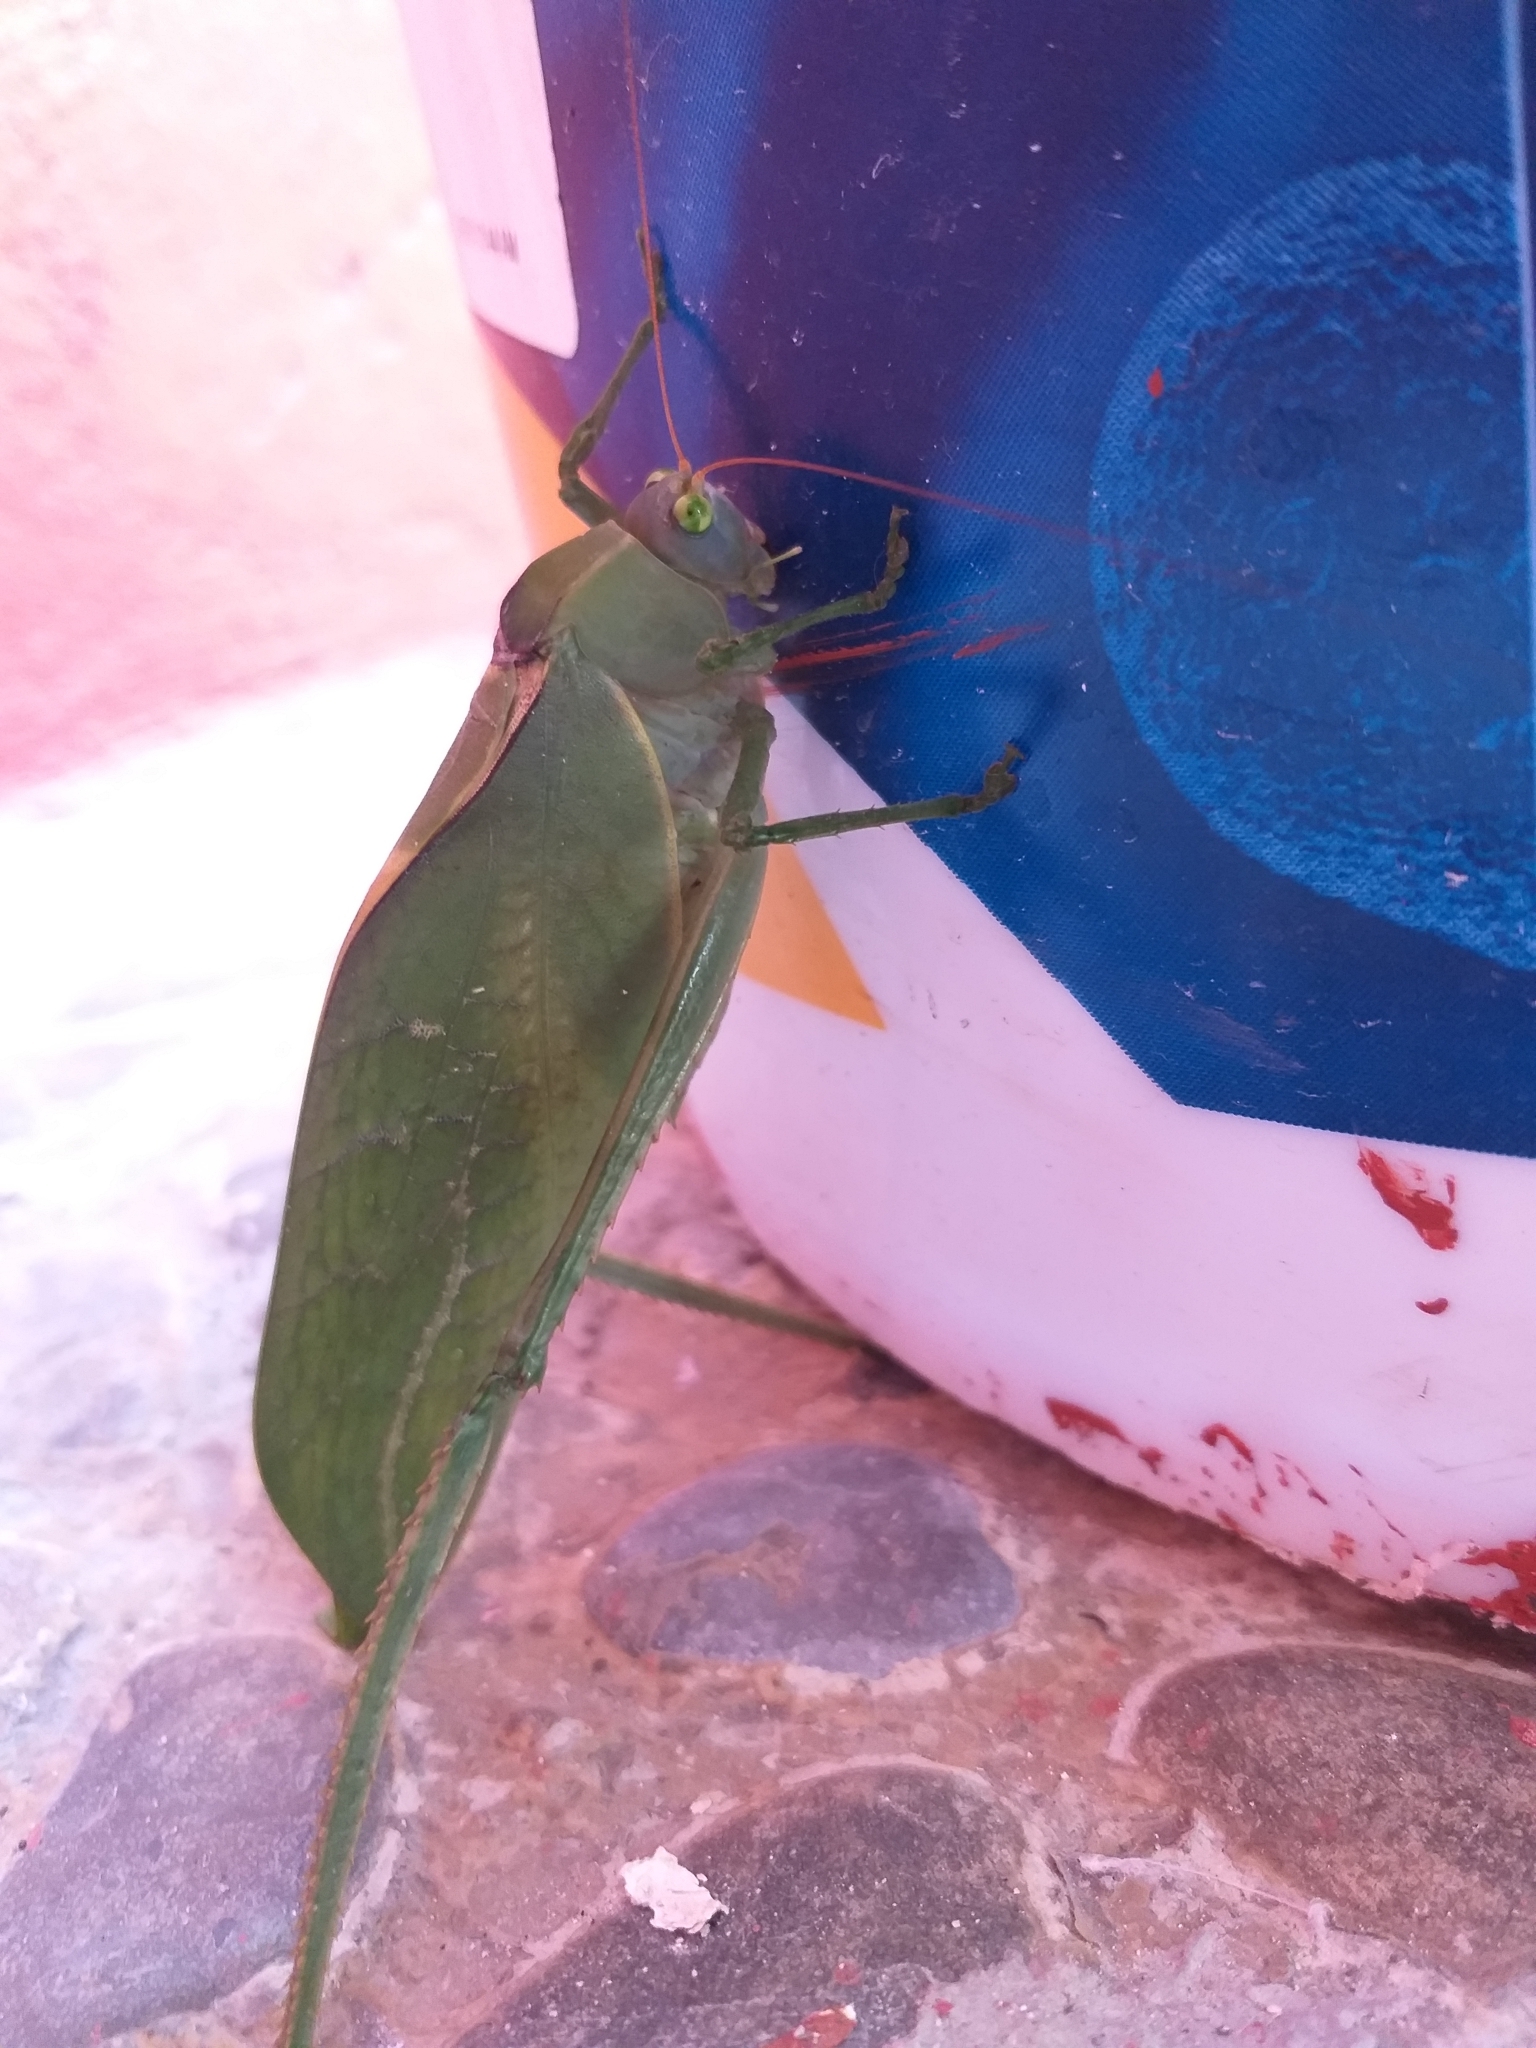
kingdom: Animalia
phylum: Arthropoda
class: Insecta
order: Orthoptera
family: Tettigoniidae
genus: Stilpnochlora
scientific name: Stilpnochlora azteca
